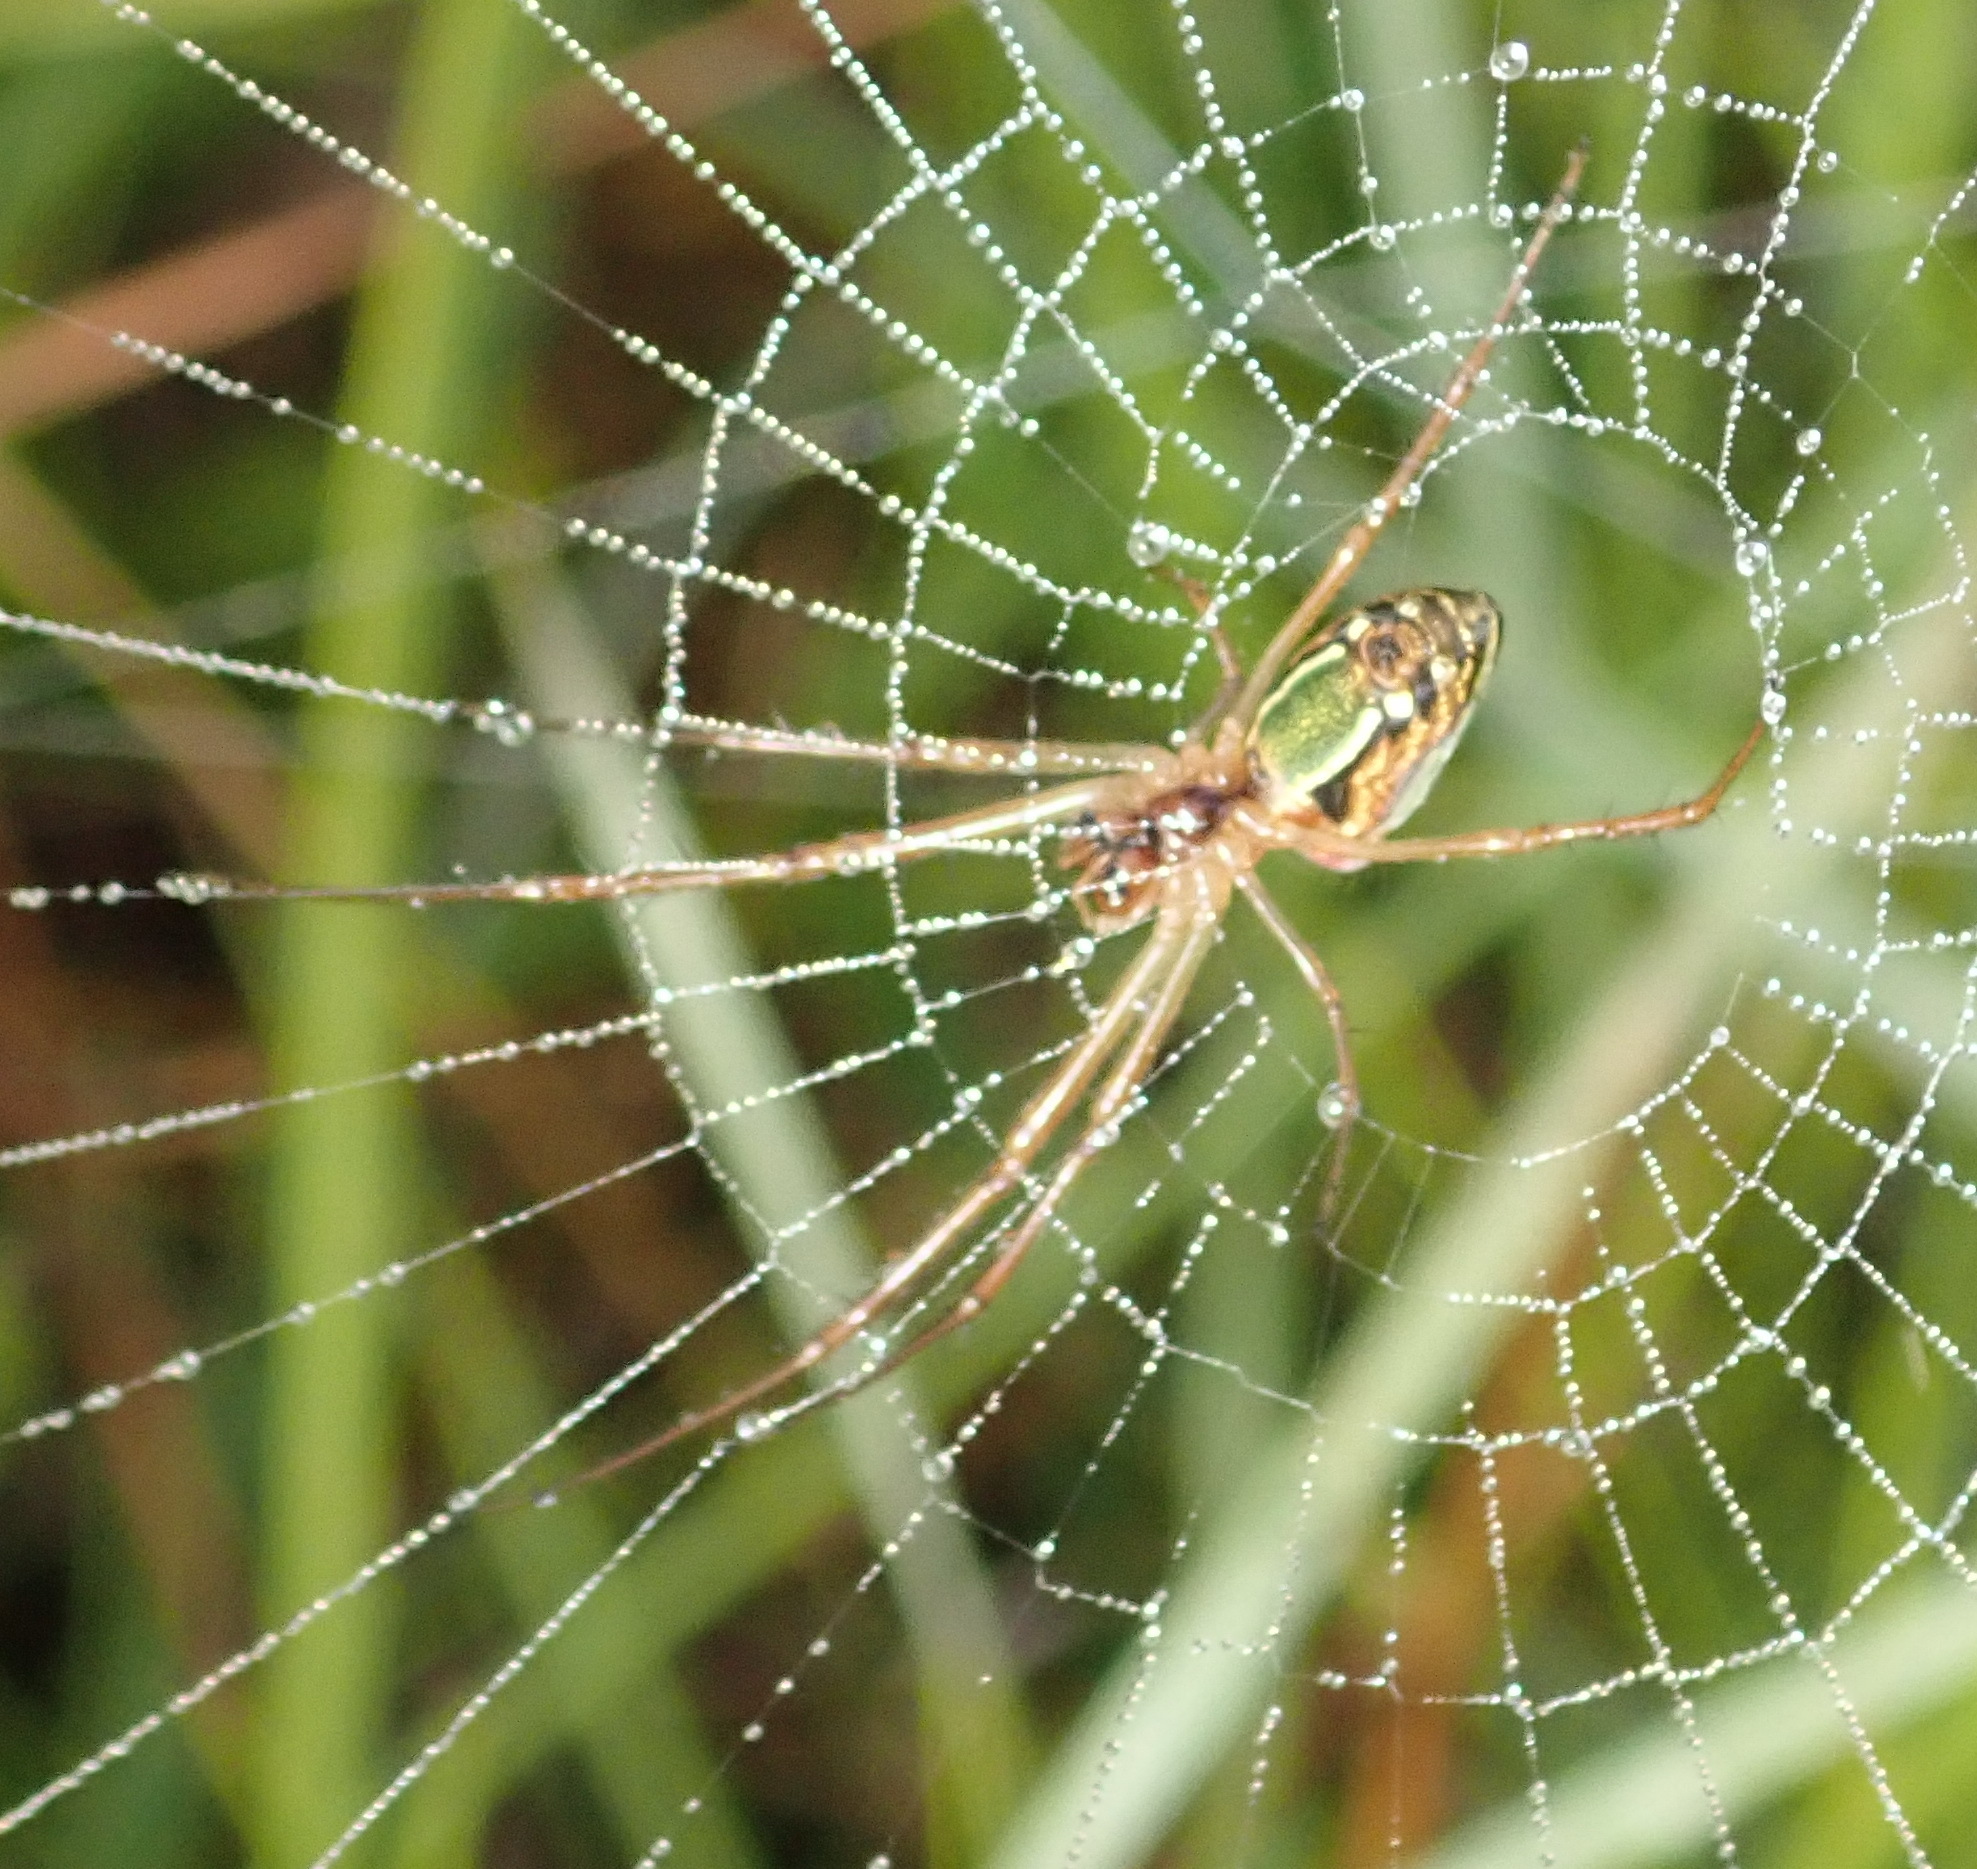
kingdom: Animalia
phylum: Arthropoda
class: Arachnida
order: Araneae
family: Tetragnathidae
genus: Leucauge
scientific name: Leucauge festiva
